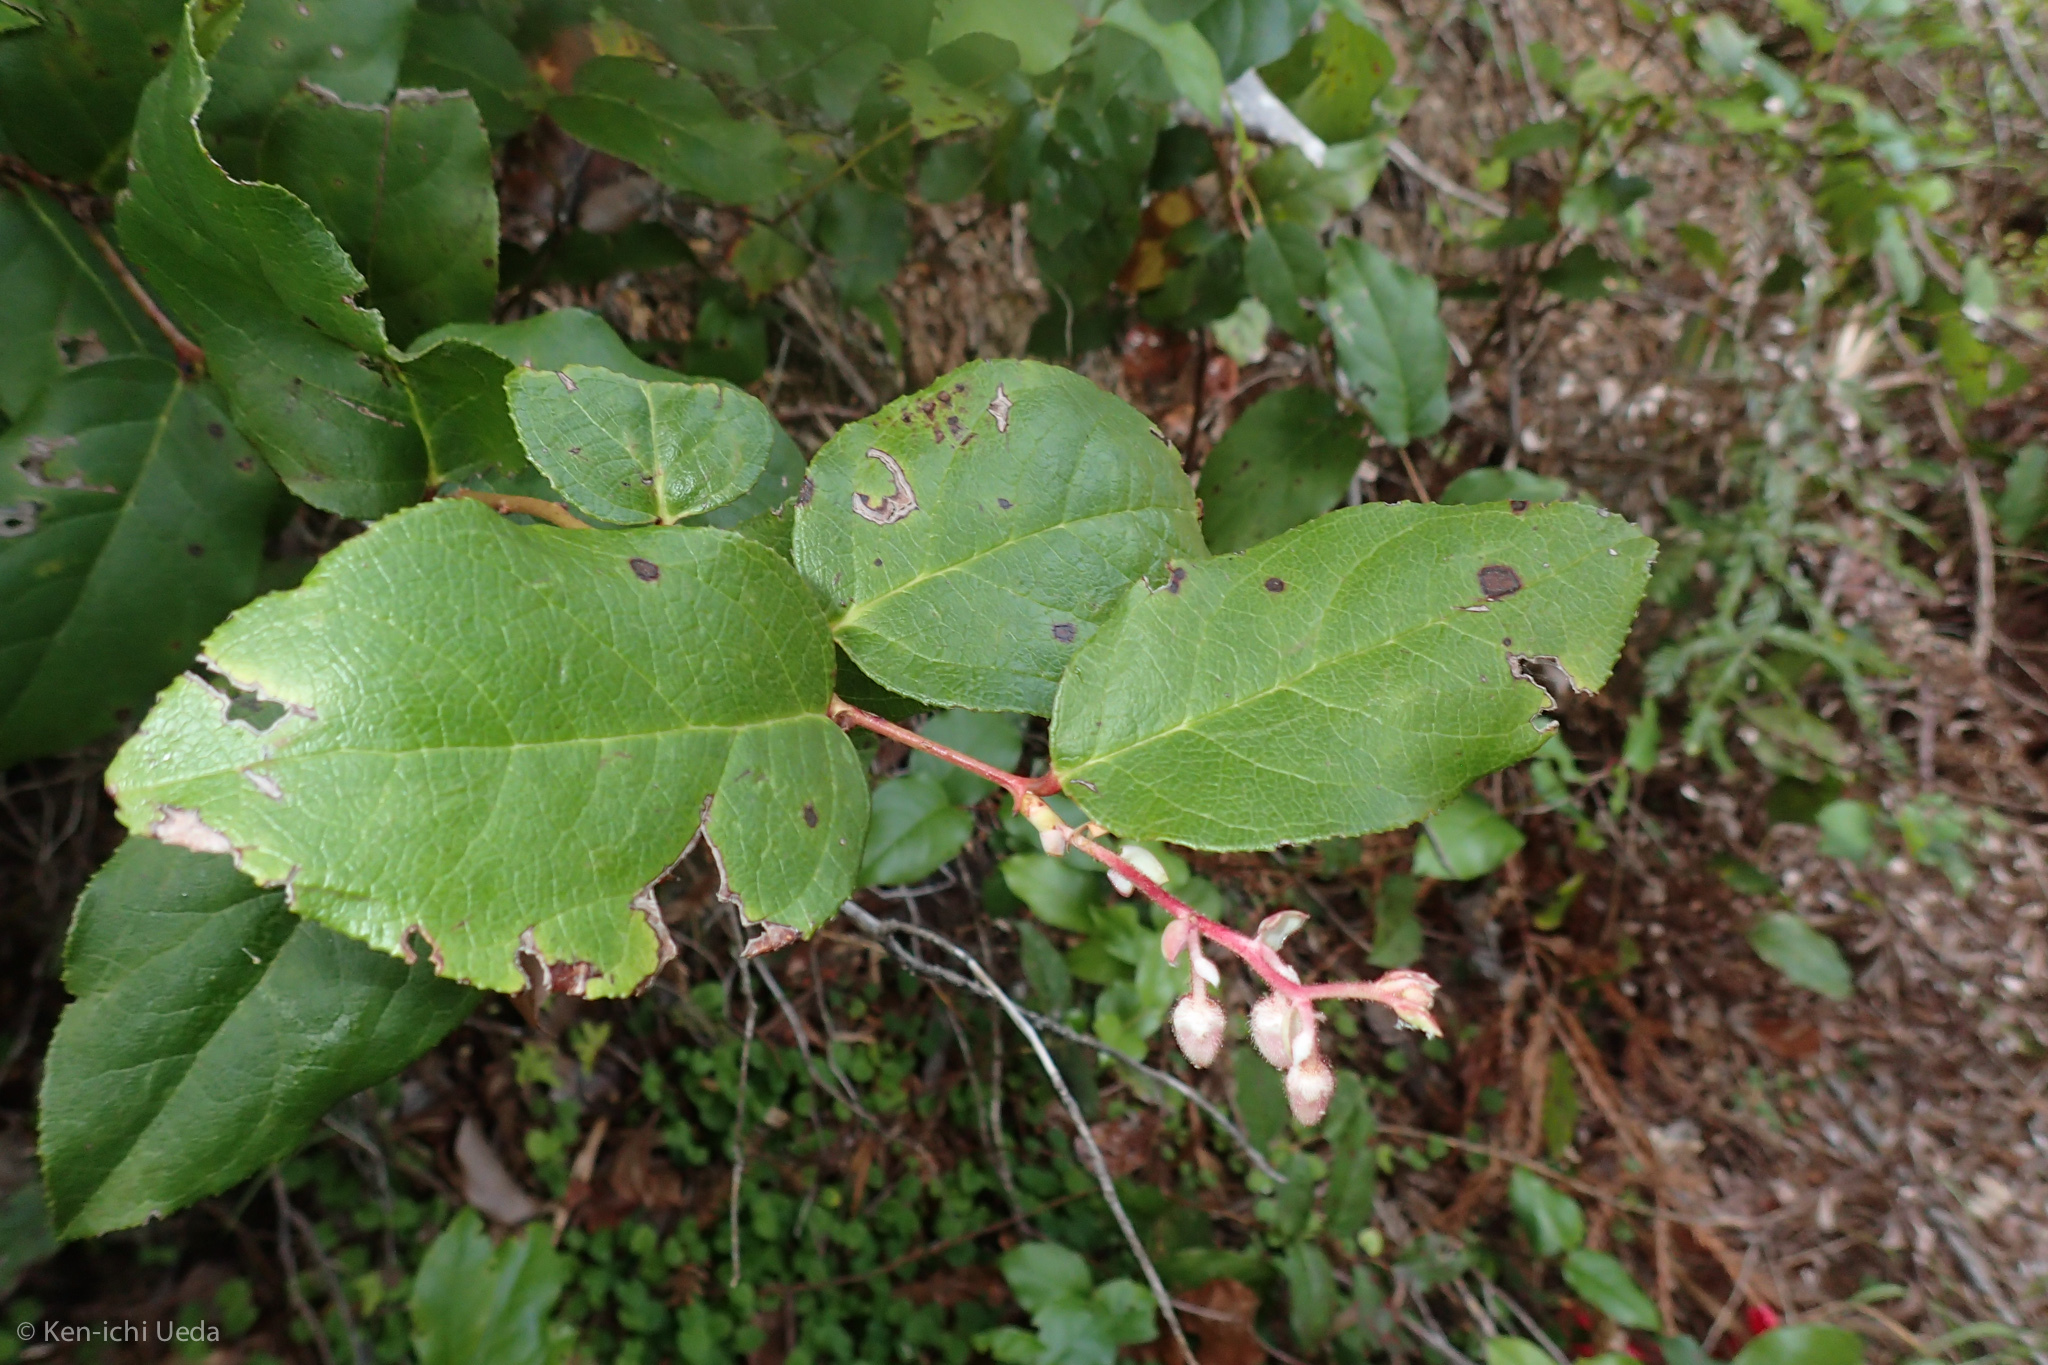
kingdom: Plantae
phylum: Tracheophyta
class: Magnoliopsida
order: Ericales
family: Ericaceae
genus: Gaultheria
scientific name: Gaultheria shallon
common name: Shallon
